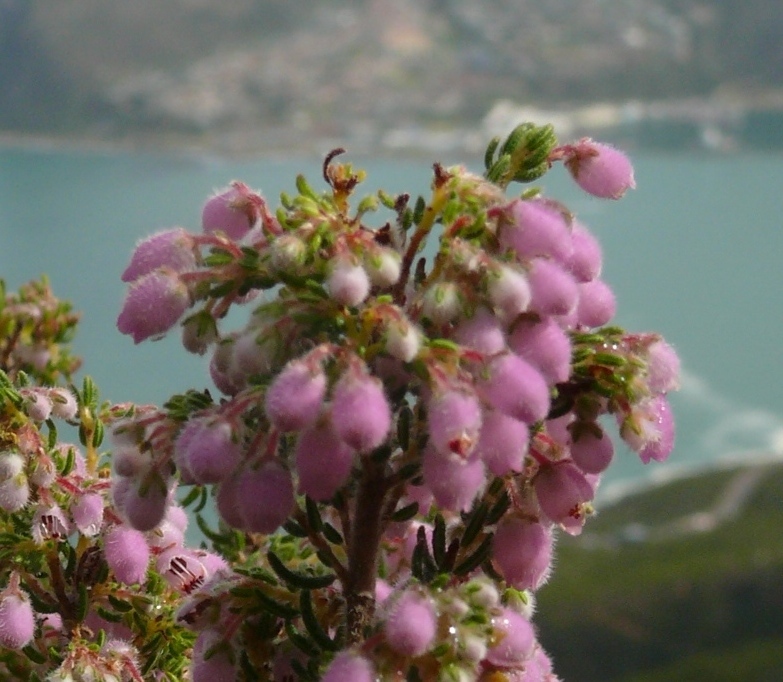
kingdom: Plantae
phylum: Tracheophyta
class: Magnoliopsida
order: Ericales
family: Ericaceae
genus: Erica
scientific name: Erica hirtiflora
